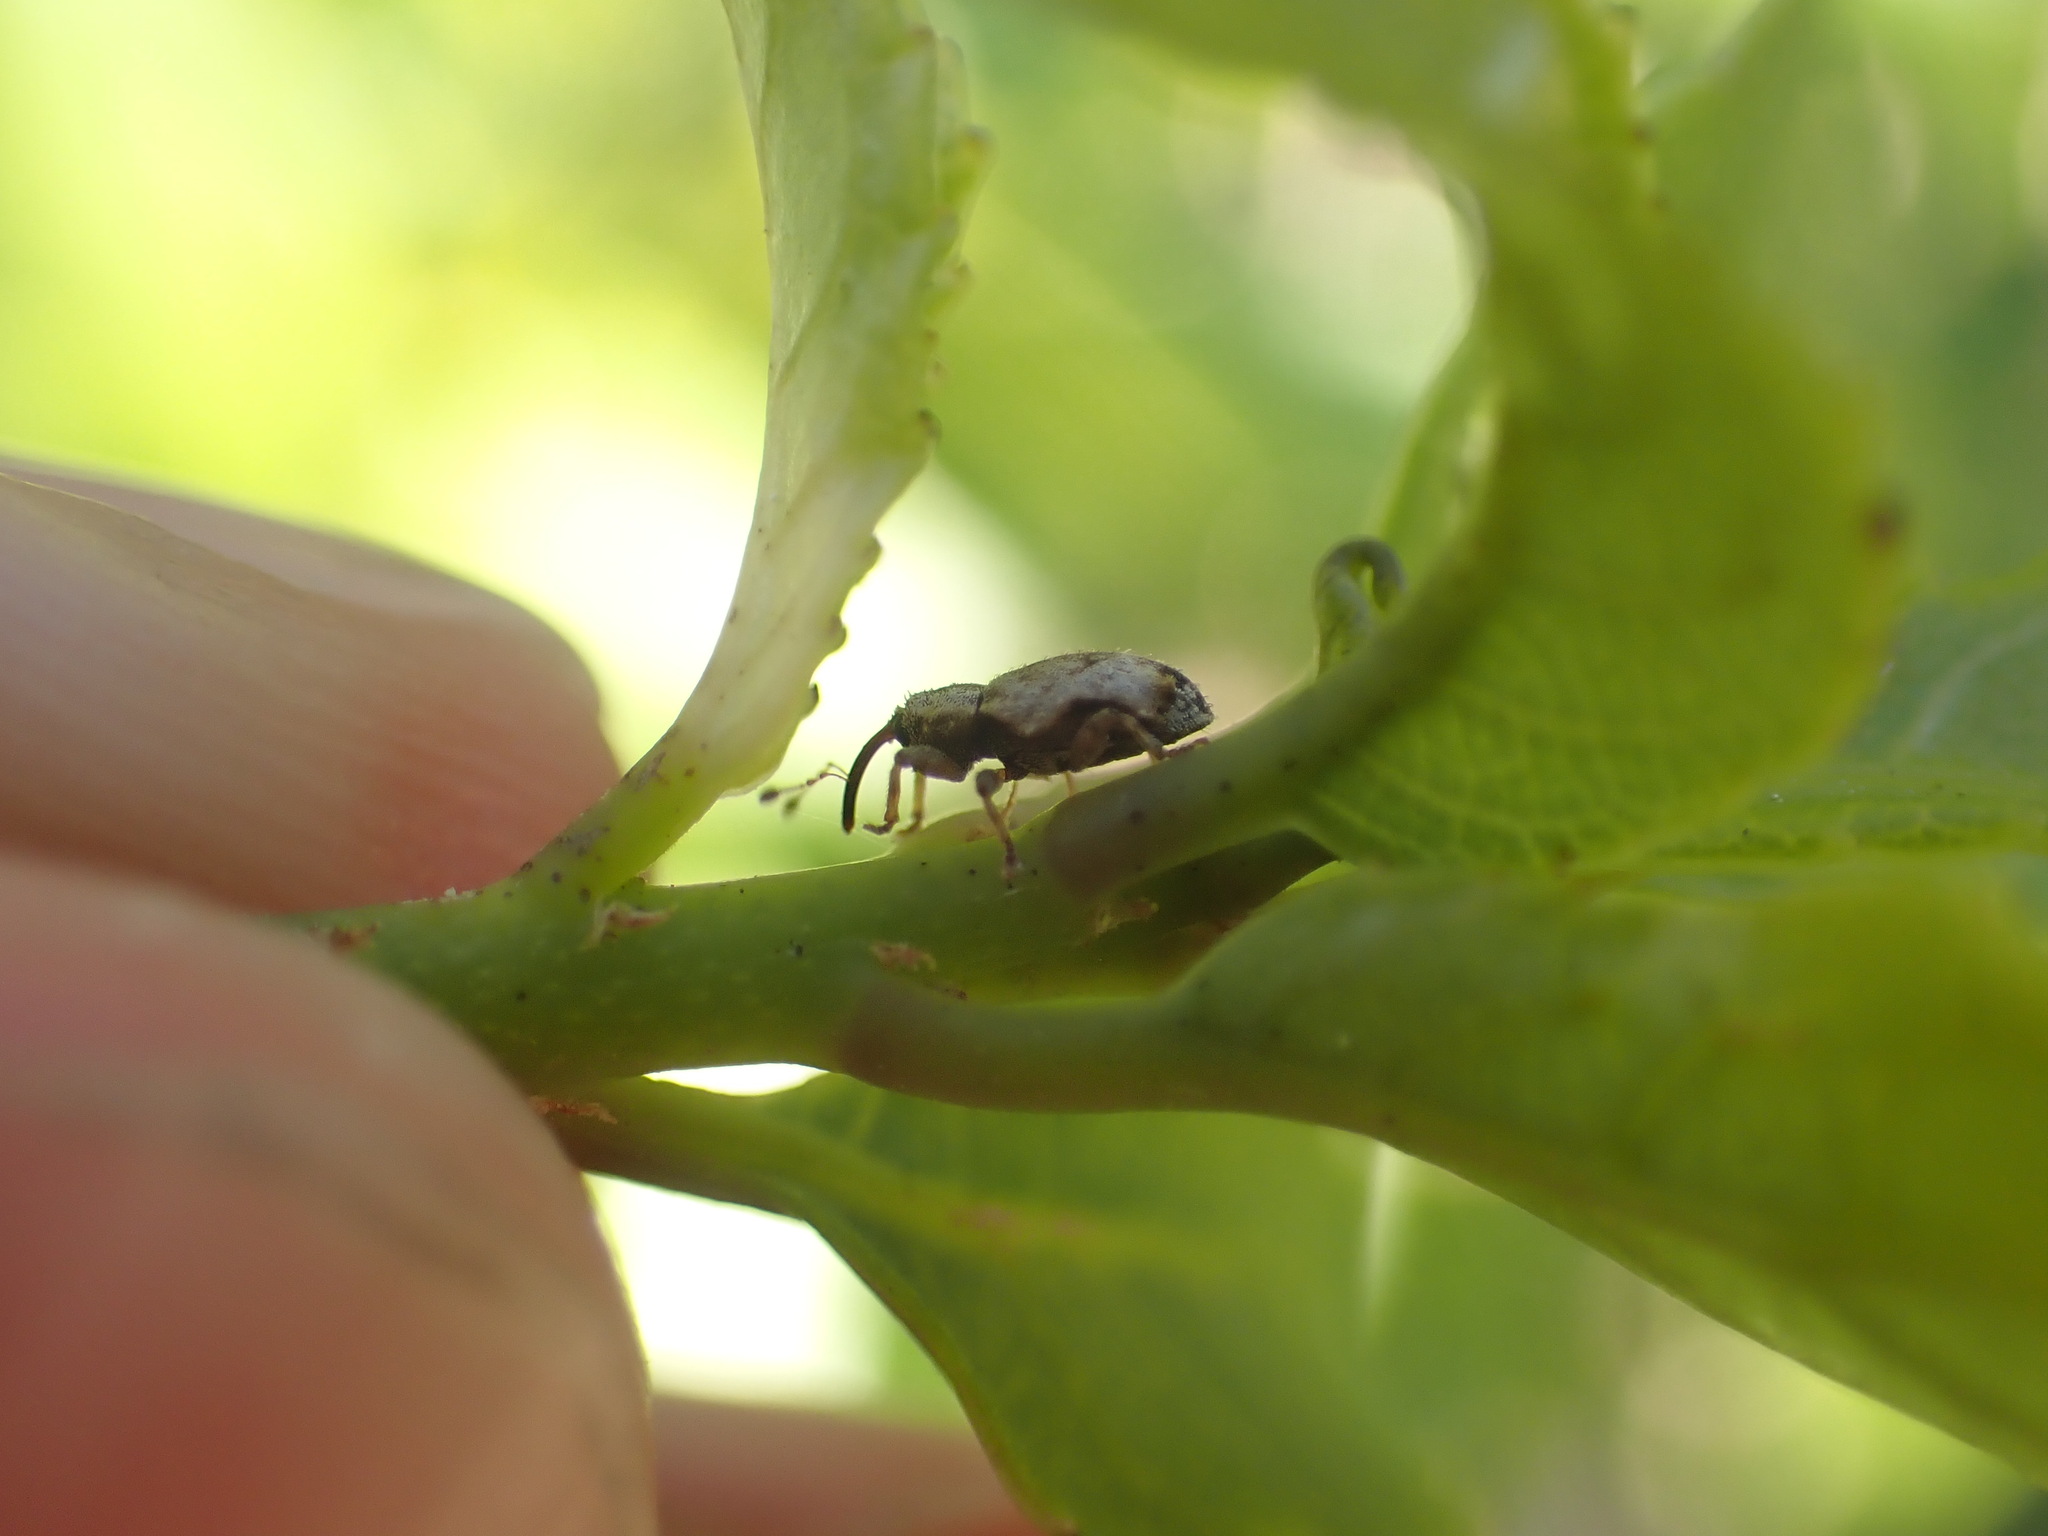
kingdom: Animalia
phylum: Arthropoda
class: Insecta
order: Coleoptera
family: Curculionidae
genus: Praolepra
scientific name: Praolepra squamosa
